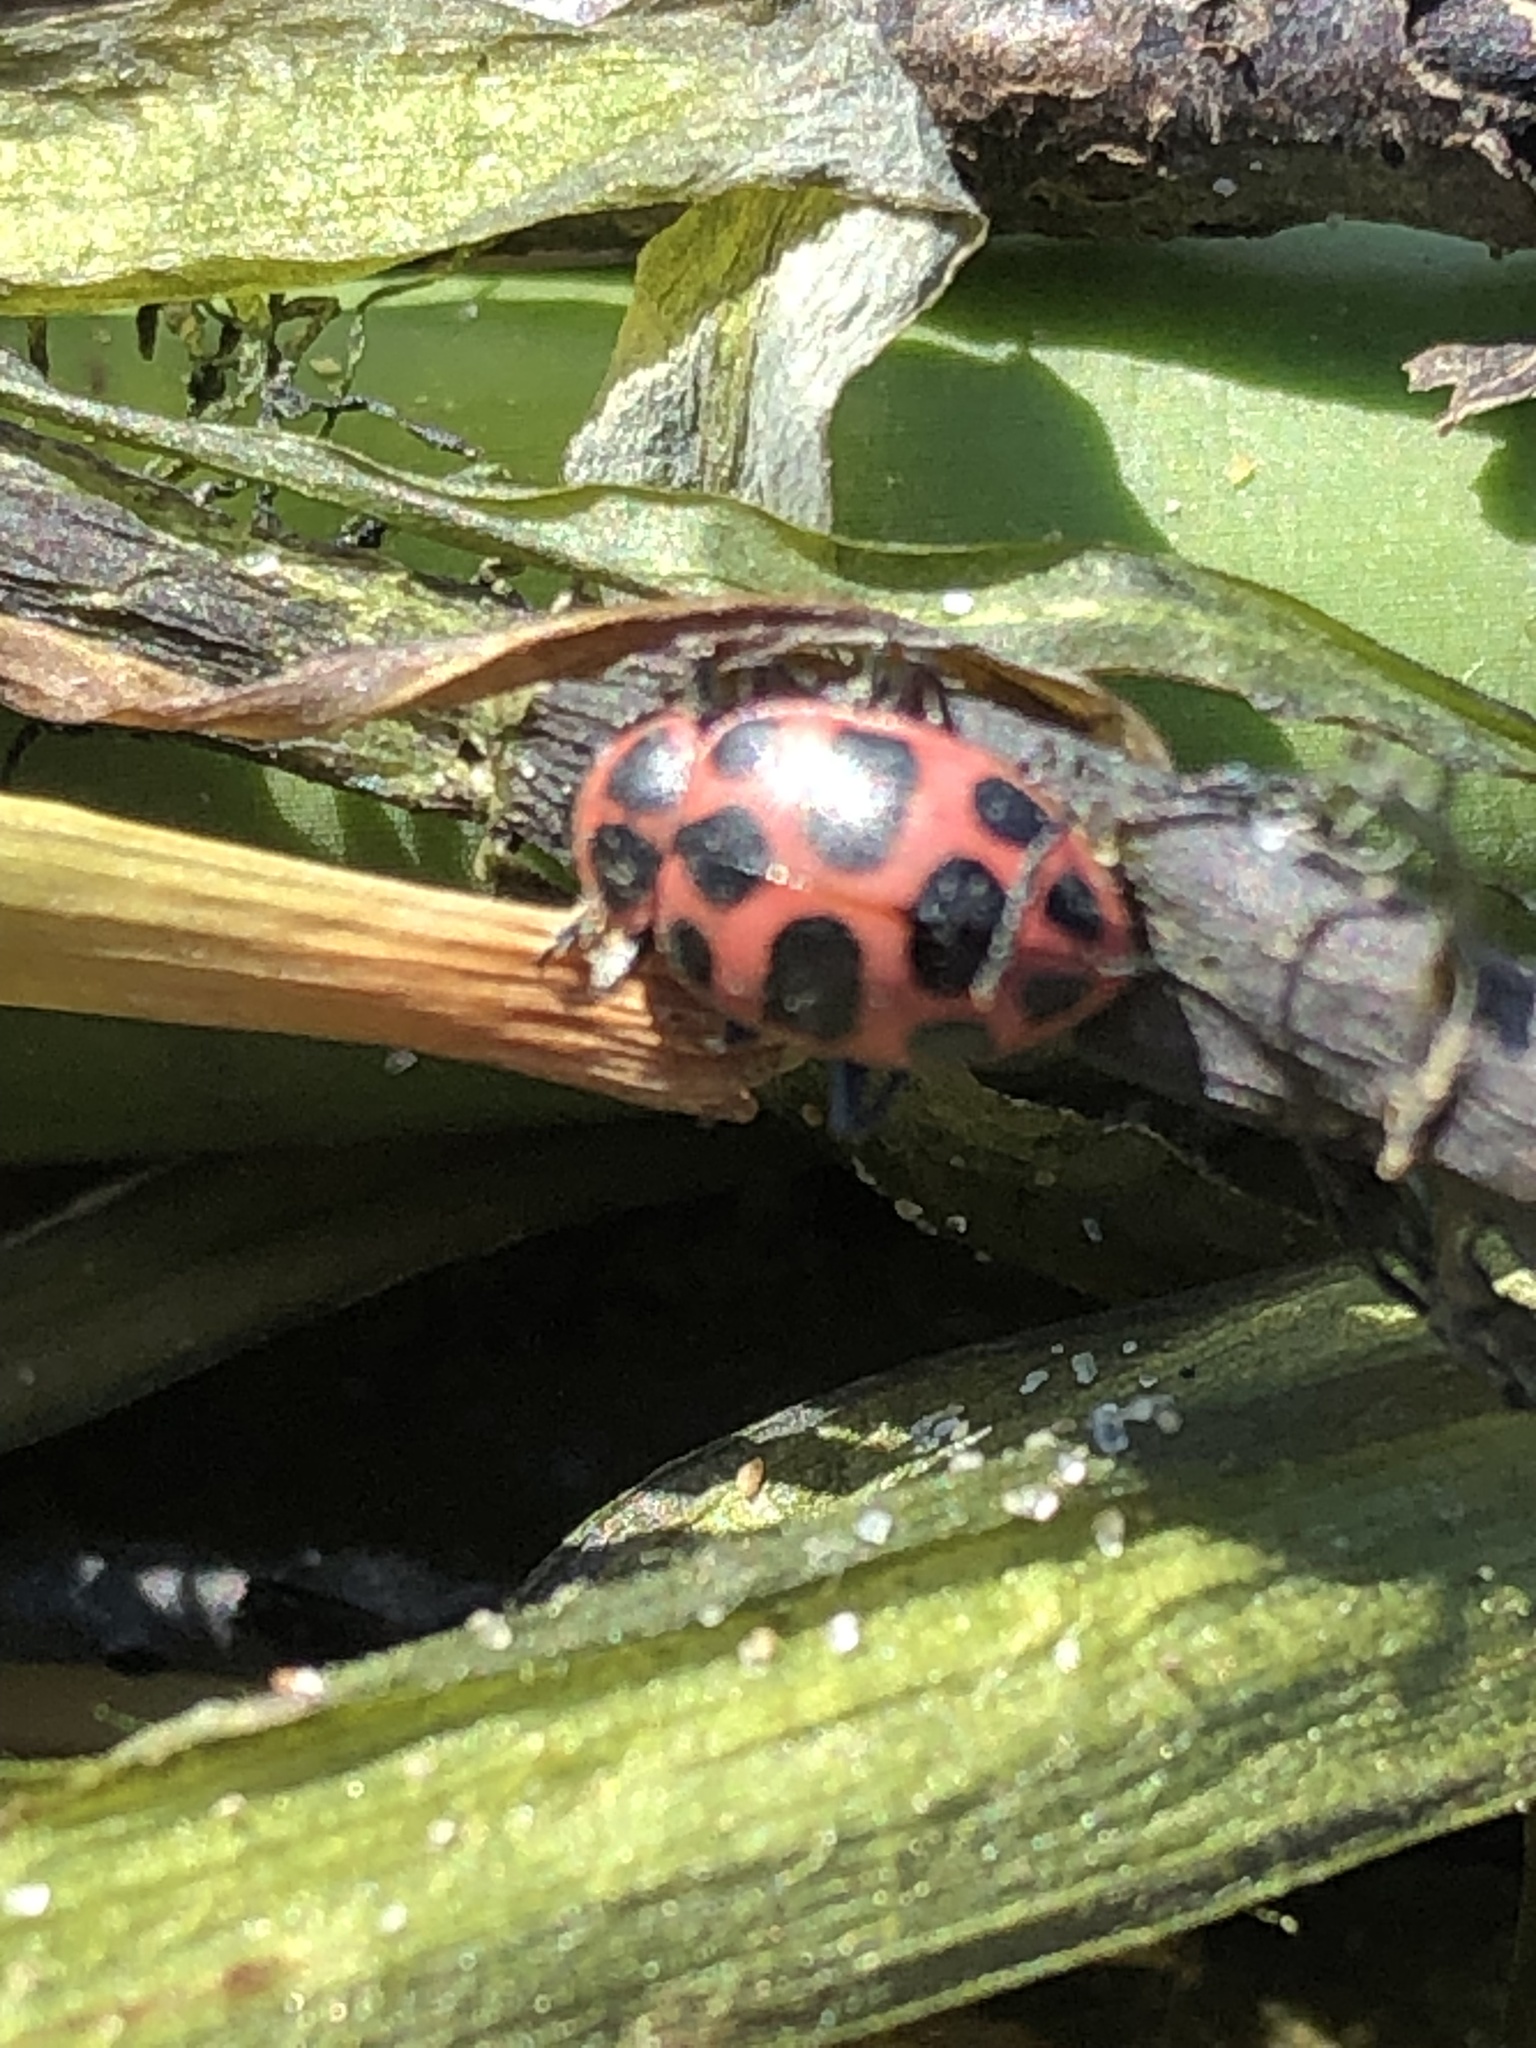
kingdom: Animalia
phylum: Arthropoda
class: Insecta
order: Coleoptera
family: Coccinellidae
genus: Coleomegilla
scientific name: Coleomegilla maculata
